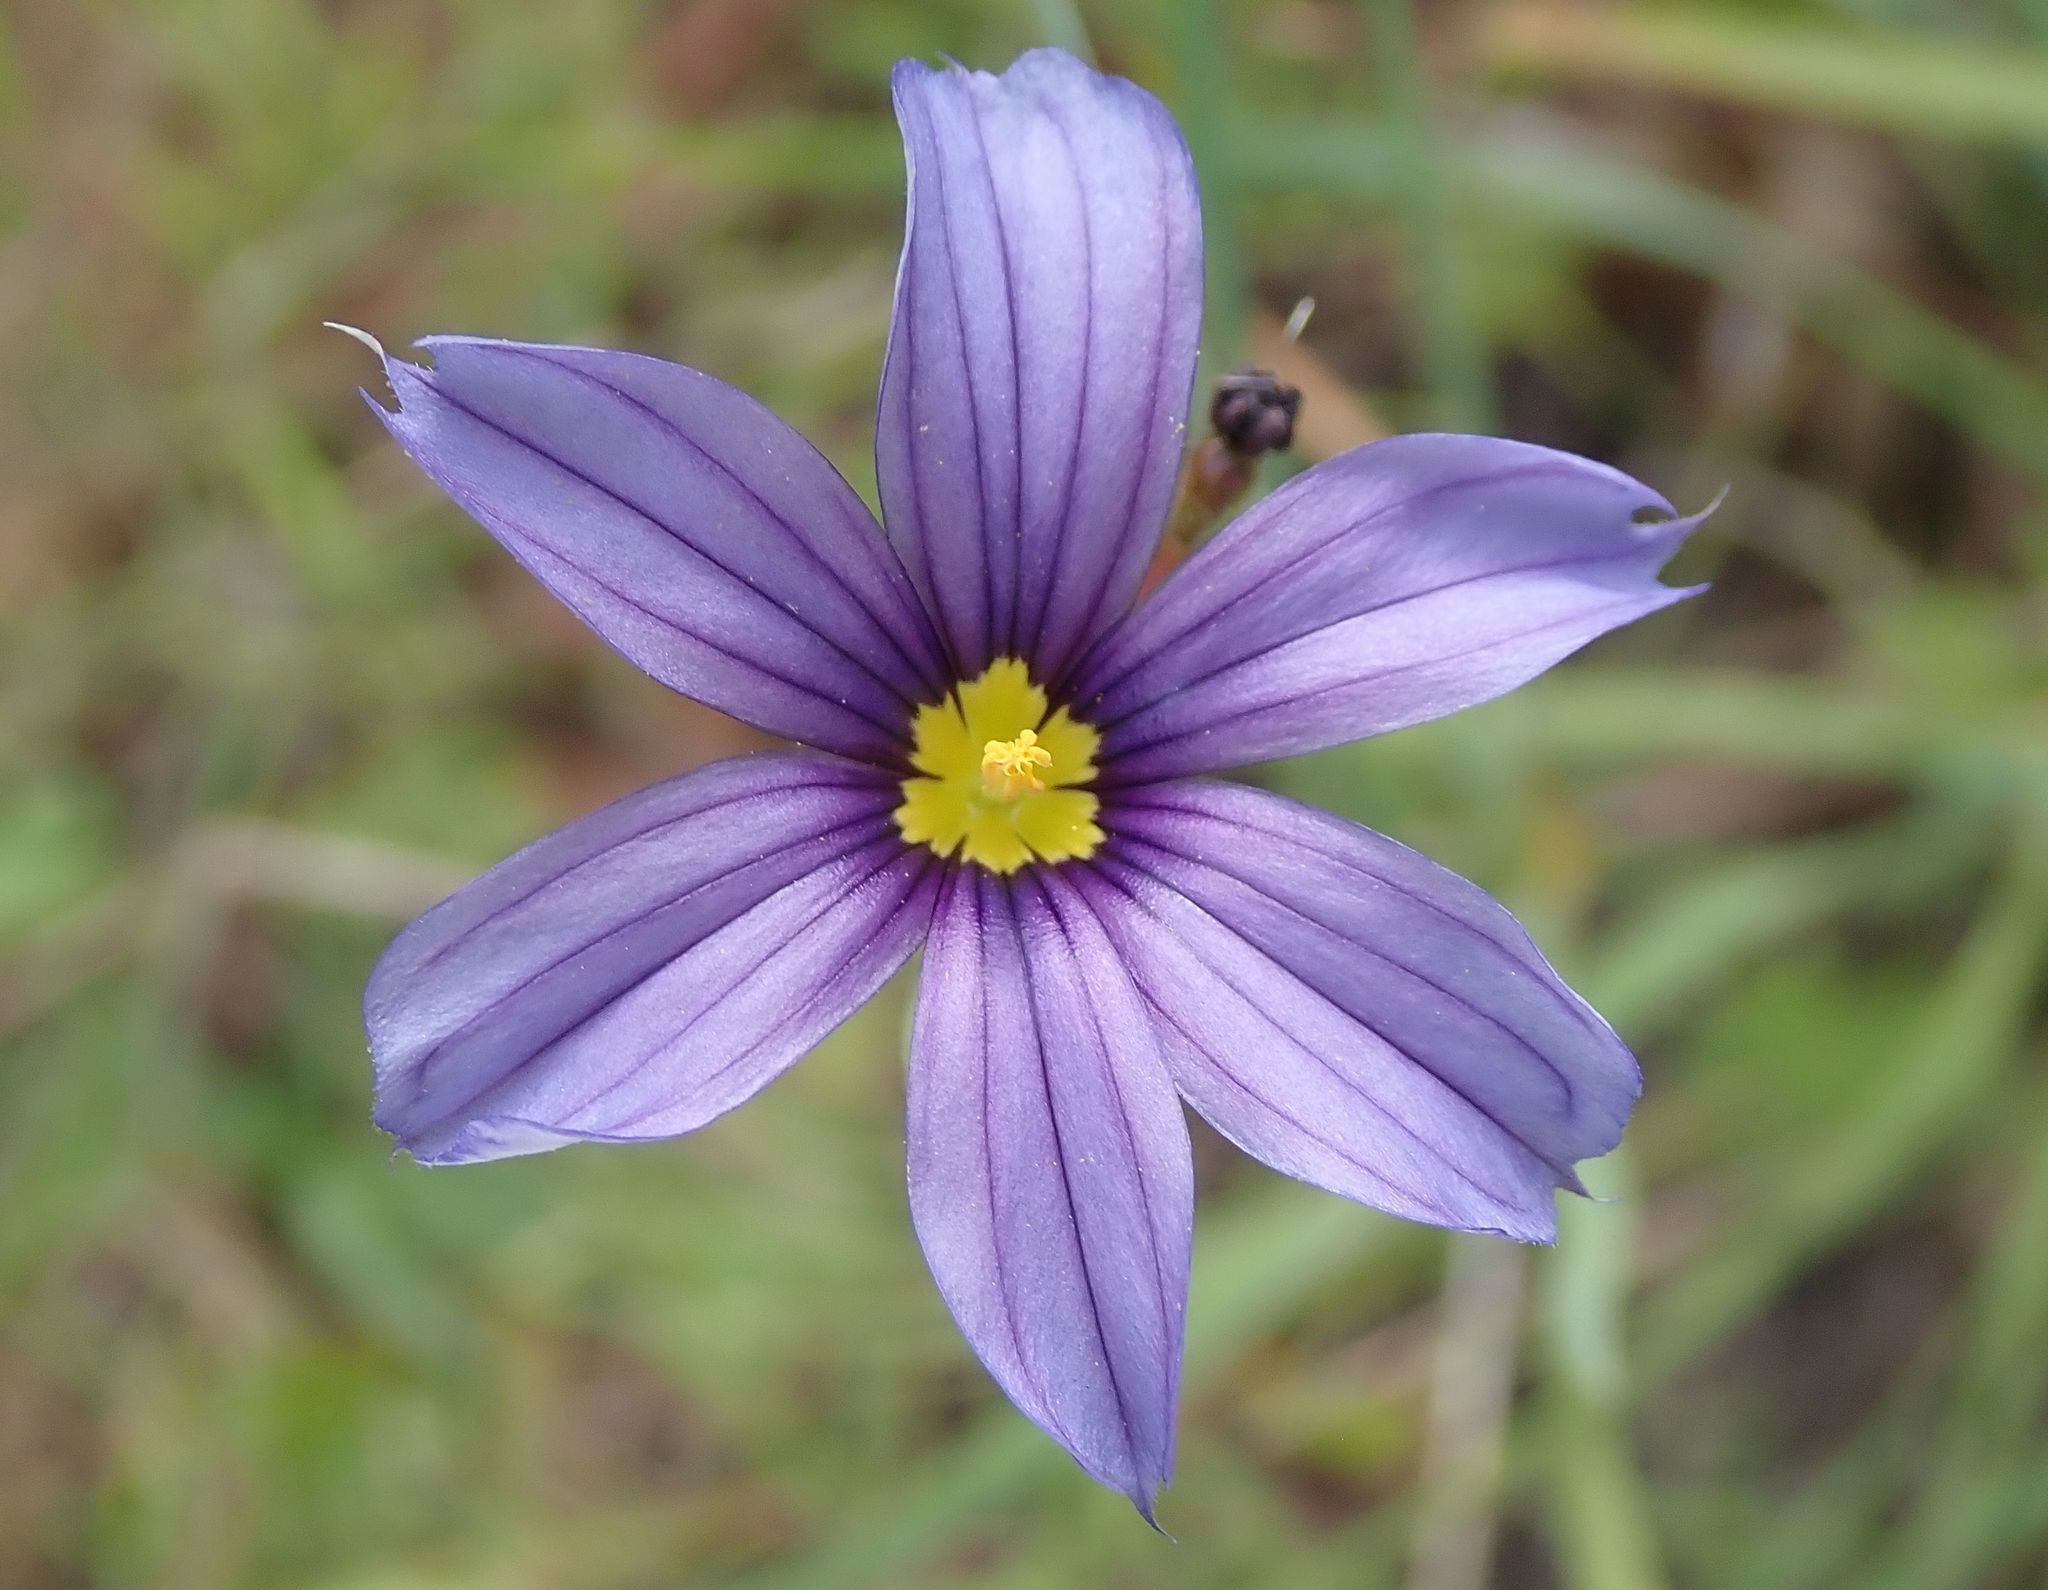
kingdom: Plantae
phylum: Tracheophyta
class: Liliopsida
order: Asparagales
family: Iridaceae
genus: Sisyrinchium
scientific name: Sisyrinchium bellum
